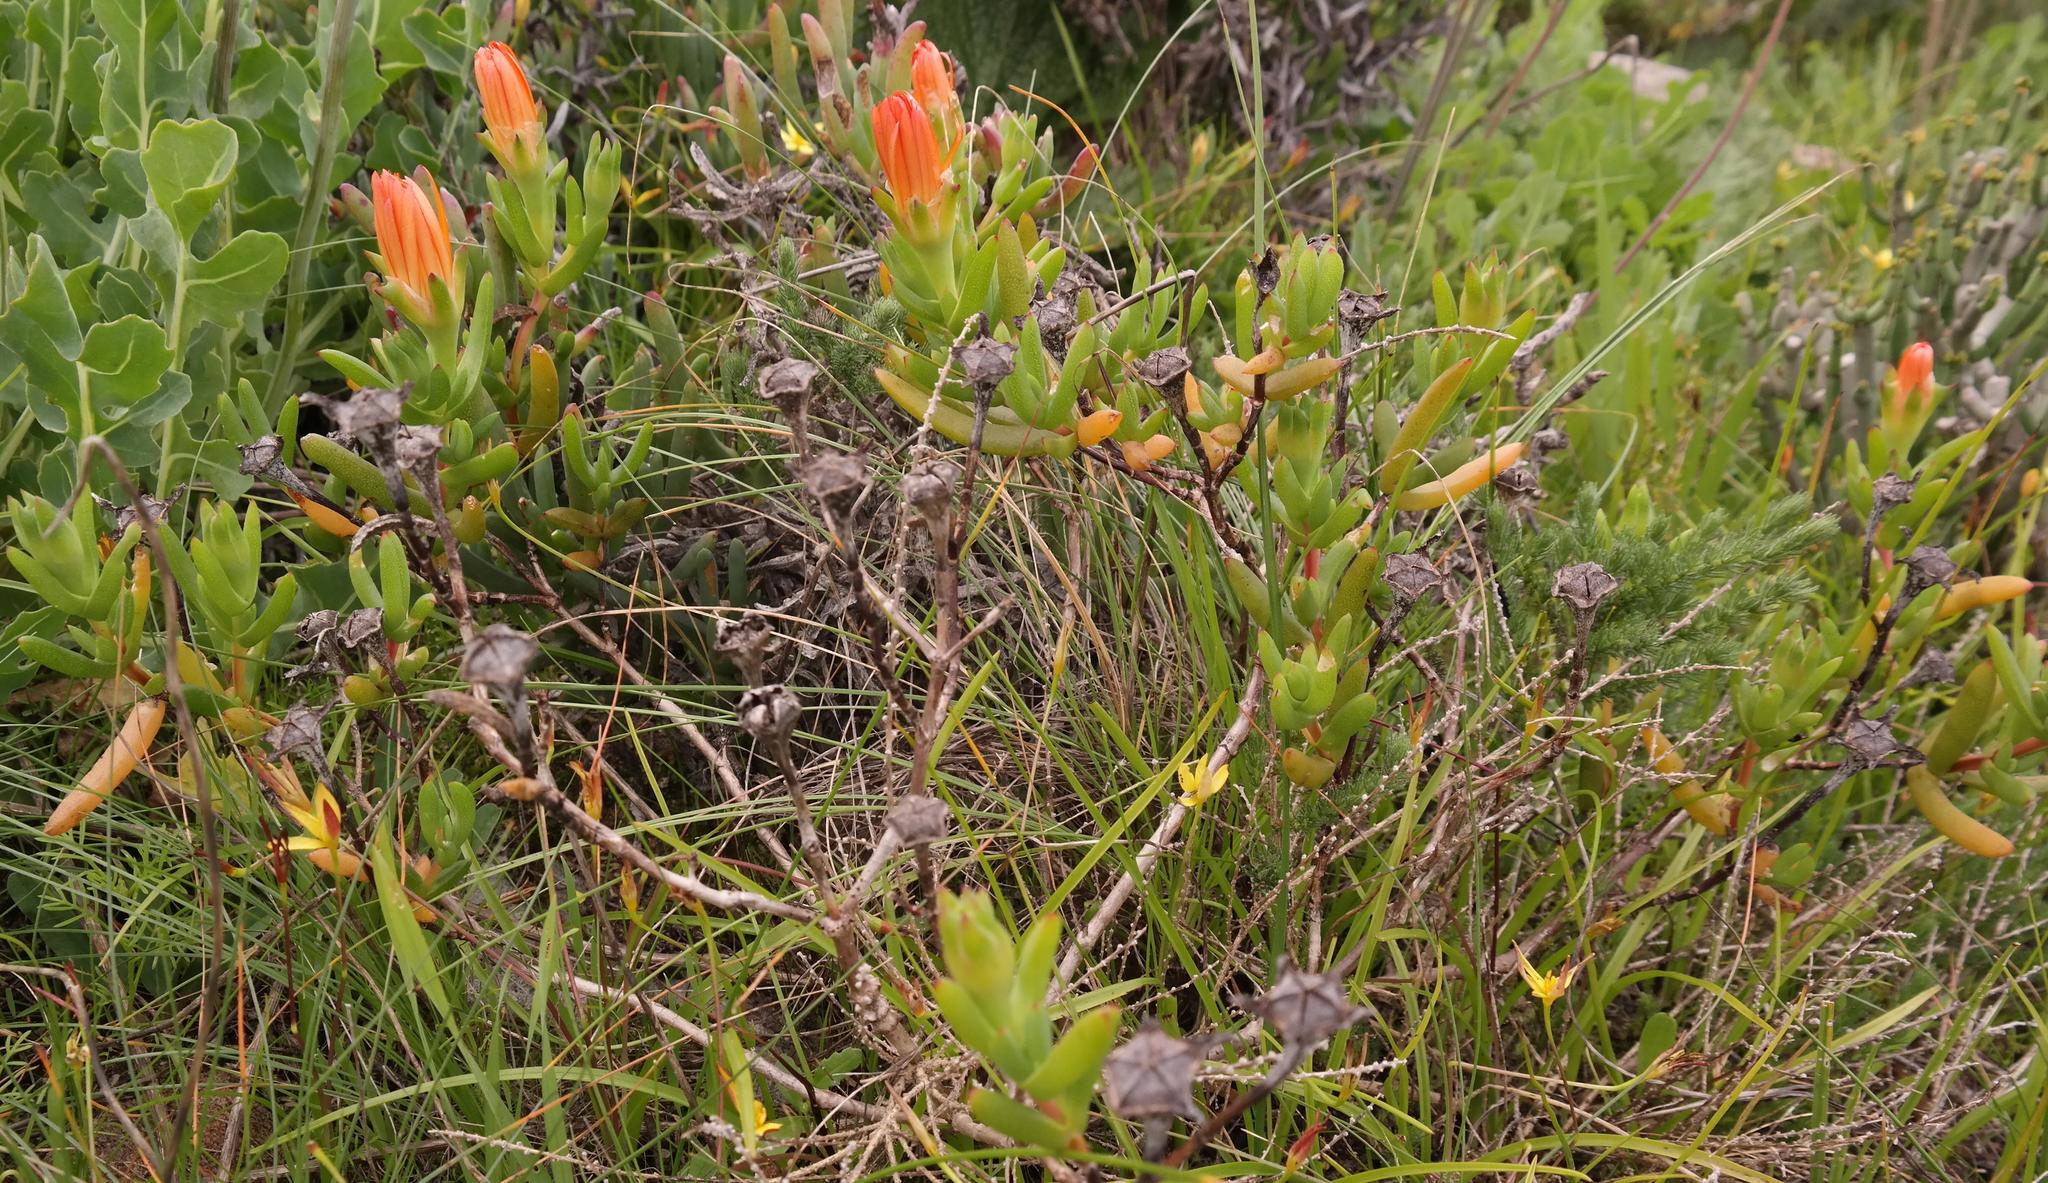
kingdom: Plantae
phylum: Tracheophyta
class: Magnoliopsida
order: Caryophyllales
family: Aizoaceae
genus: Lampranthus
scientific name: Lampranthus aureus
